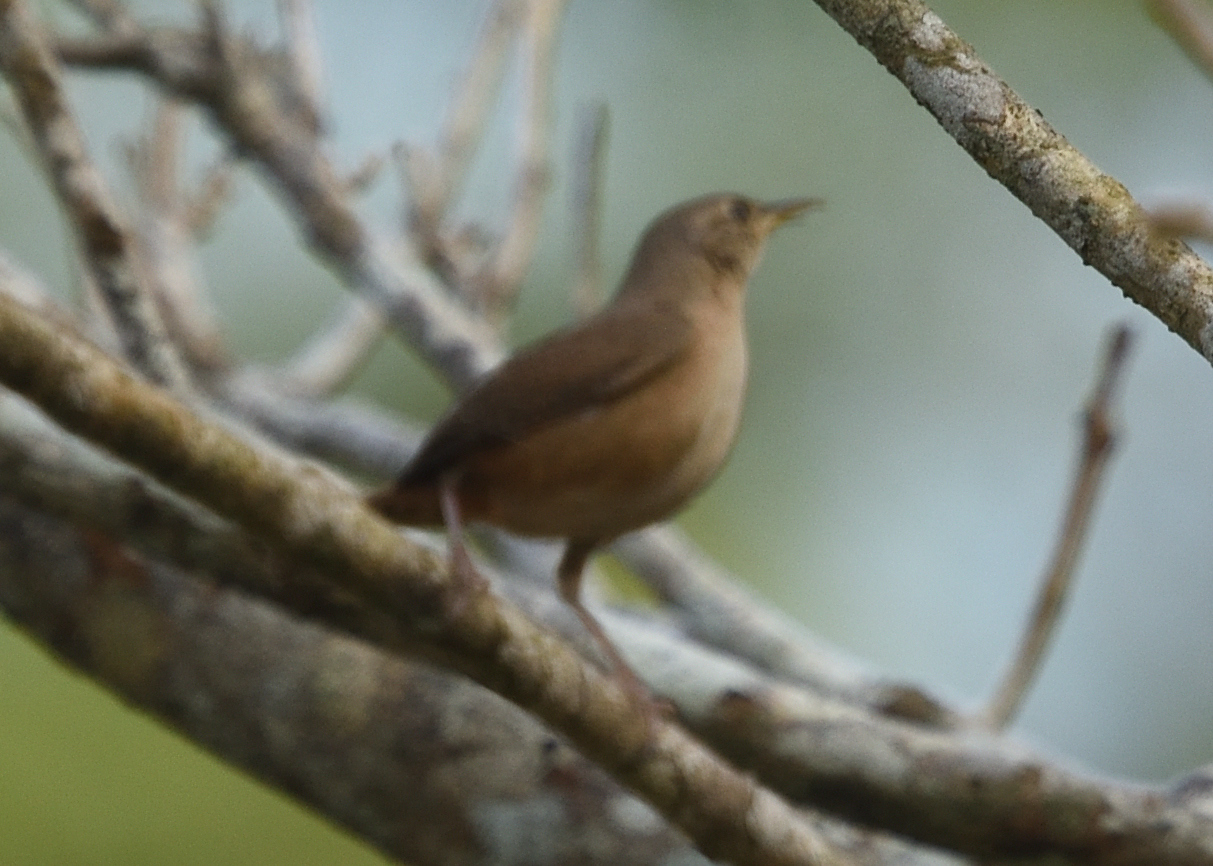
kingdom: Animalia
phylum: Chordata
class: Aves
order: Passeriformes
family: Troglodytidae
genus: Troglodytes
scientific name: Troglodytes aedon
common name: House wren
